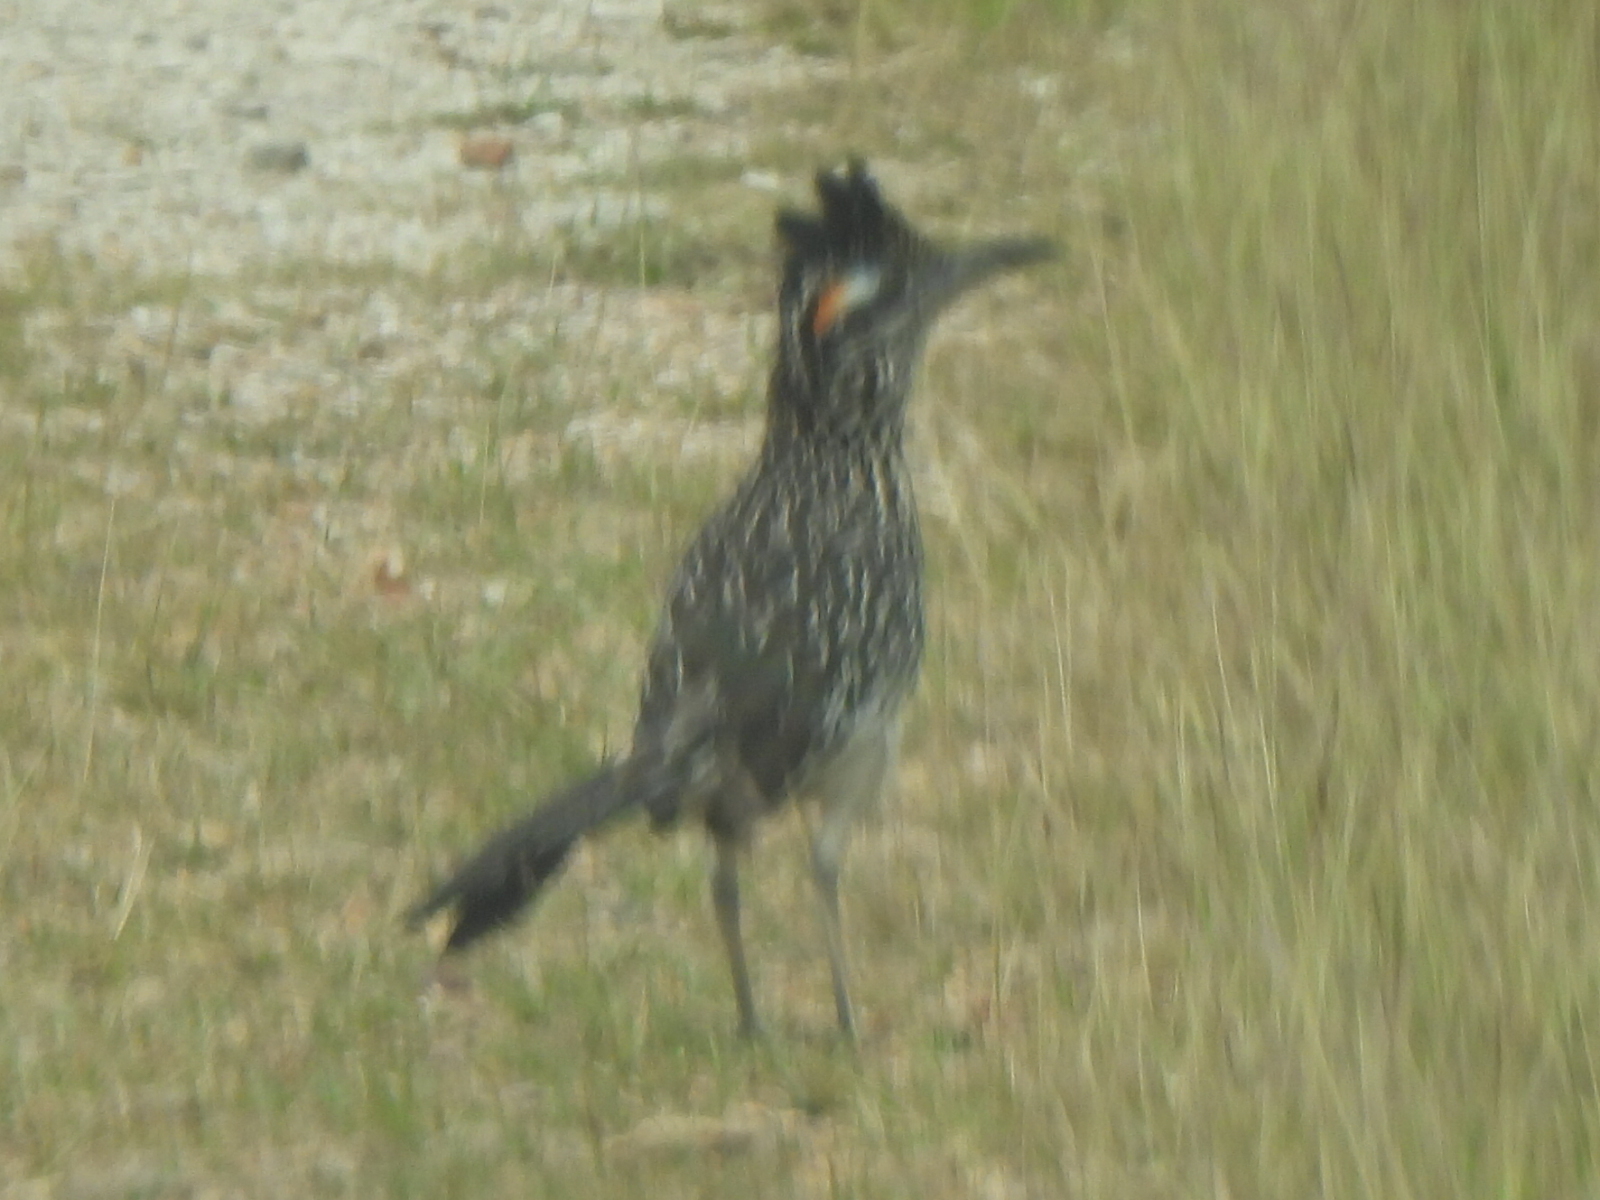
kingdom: Animalia
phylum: Chordata
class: Aves
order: Cuculiformes
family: Cuculidae
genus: Geococcyx
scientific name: Geococcyx californianus
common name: Greater roadrunner
